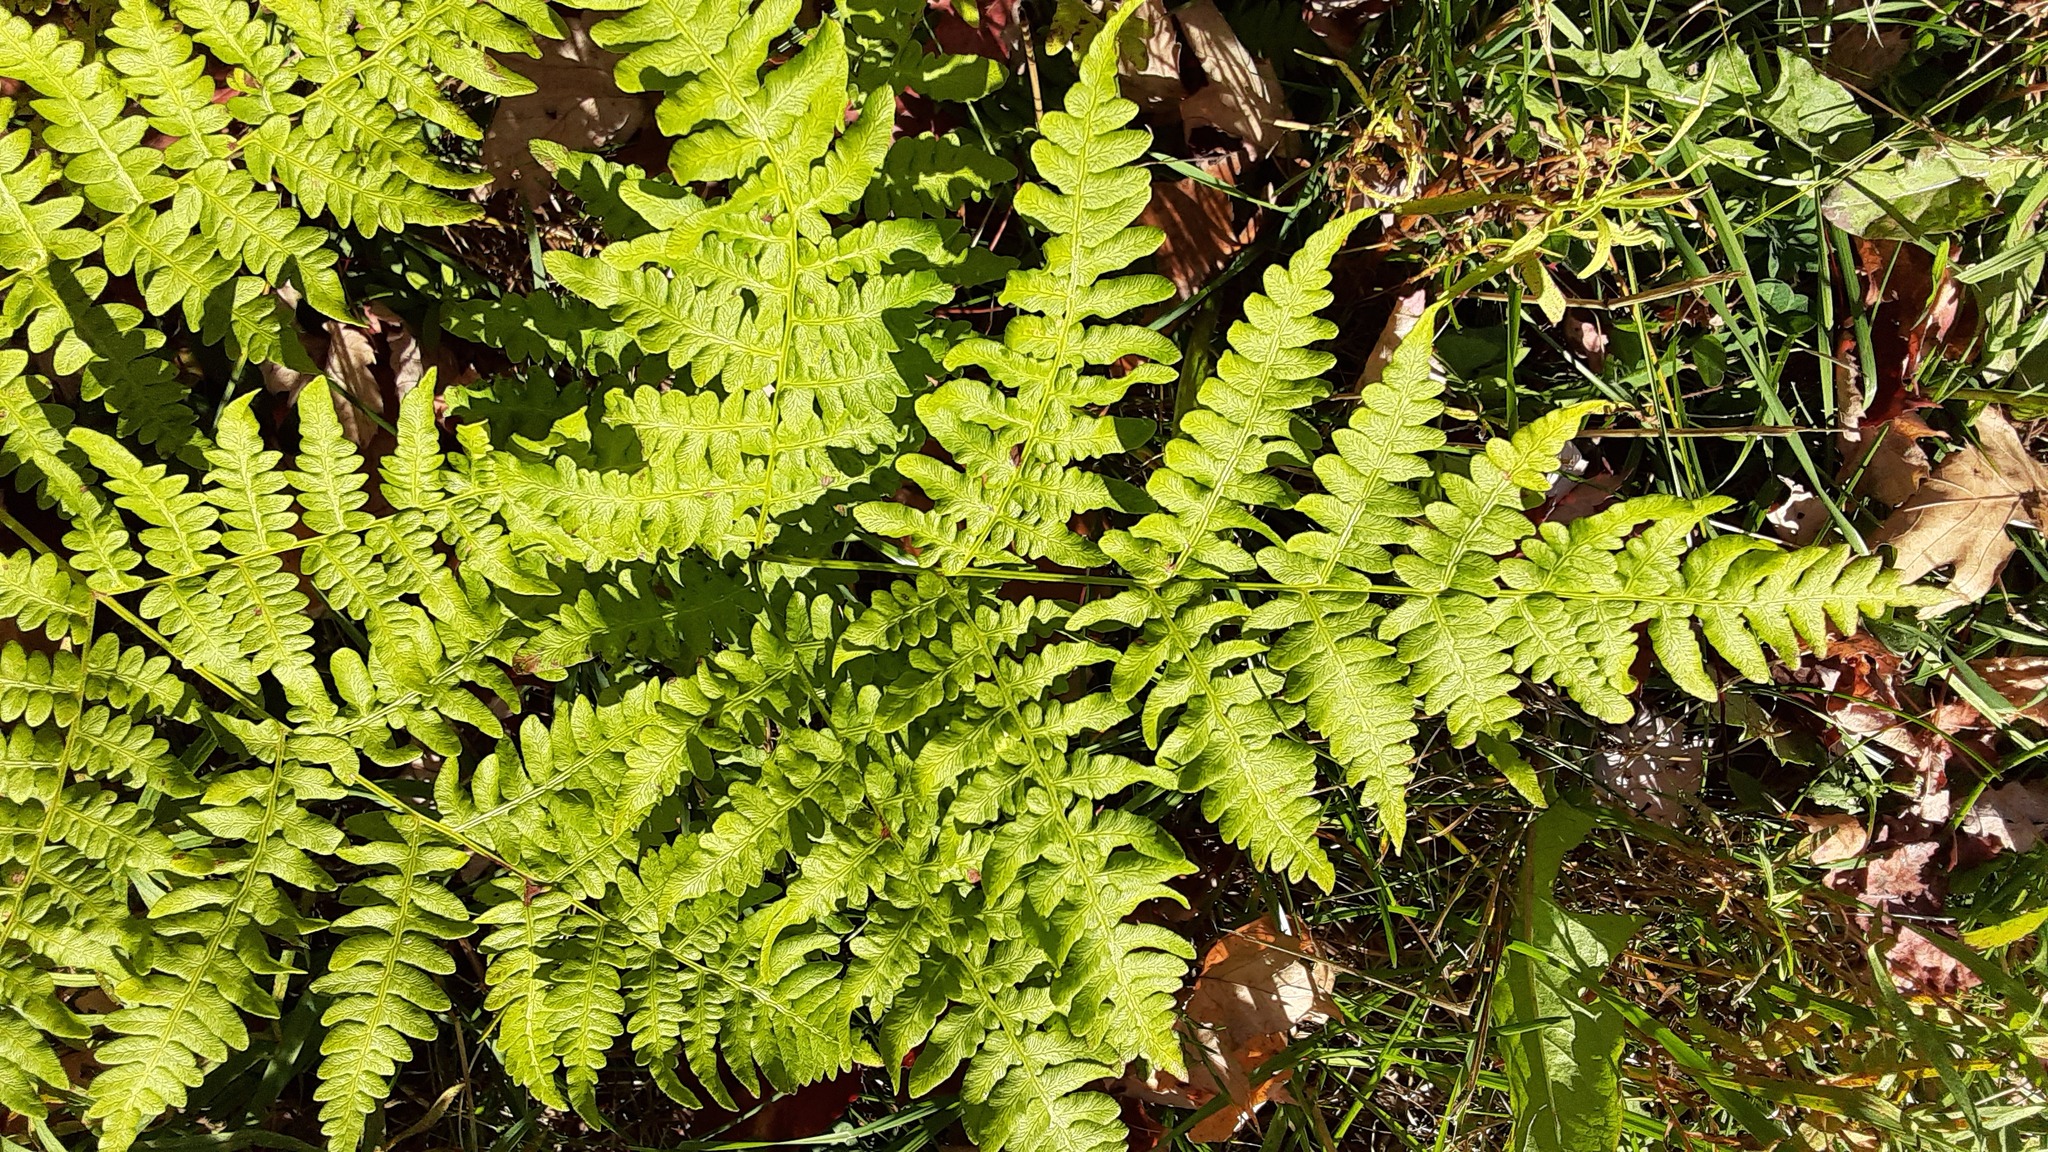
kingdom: Plantae
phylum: Tracheophyta
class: Polypodiopsida
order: Polypodiales
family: Dennstaedtiaceae
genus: Pteridium
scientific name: Pteridium aquilinum
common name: Bracken
